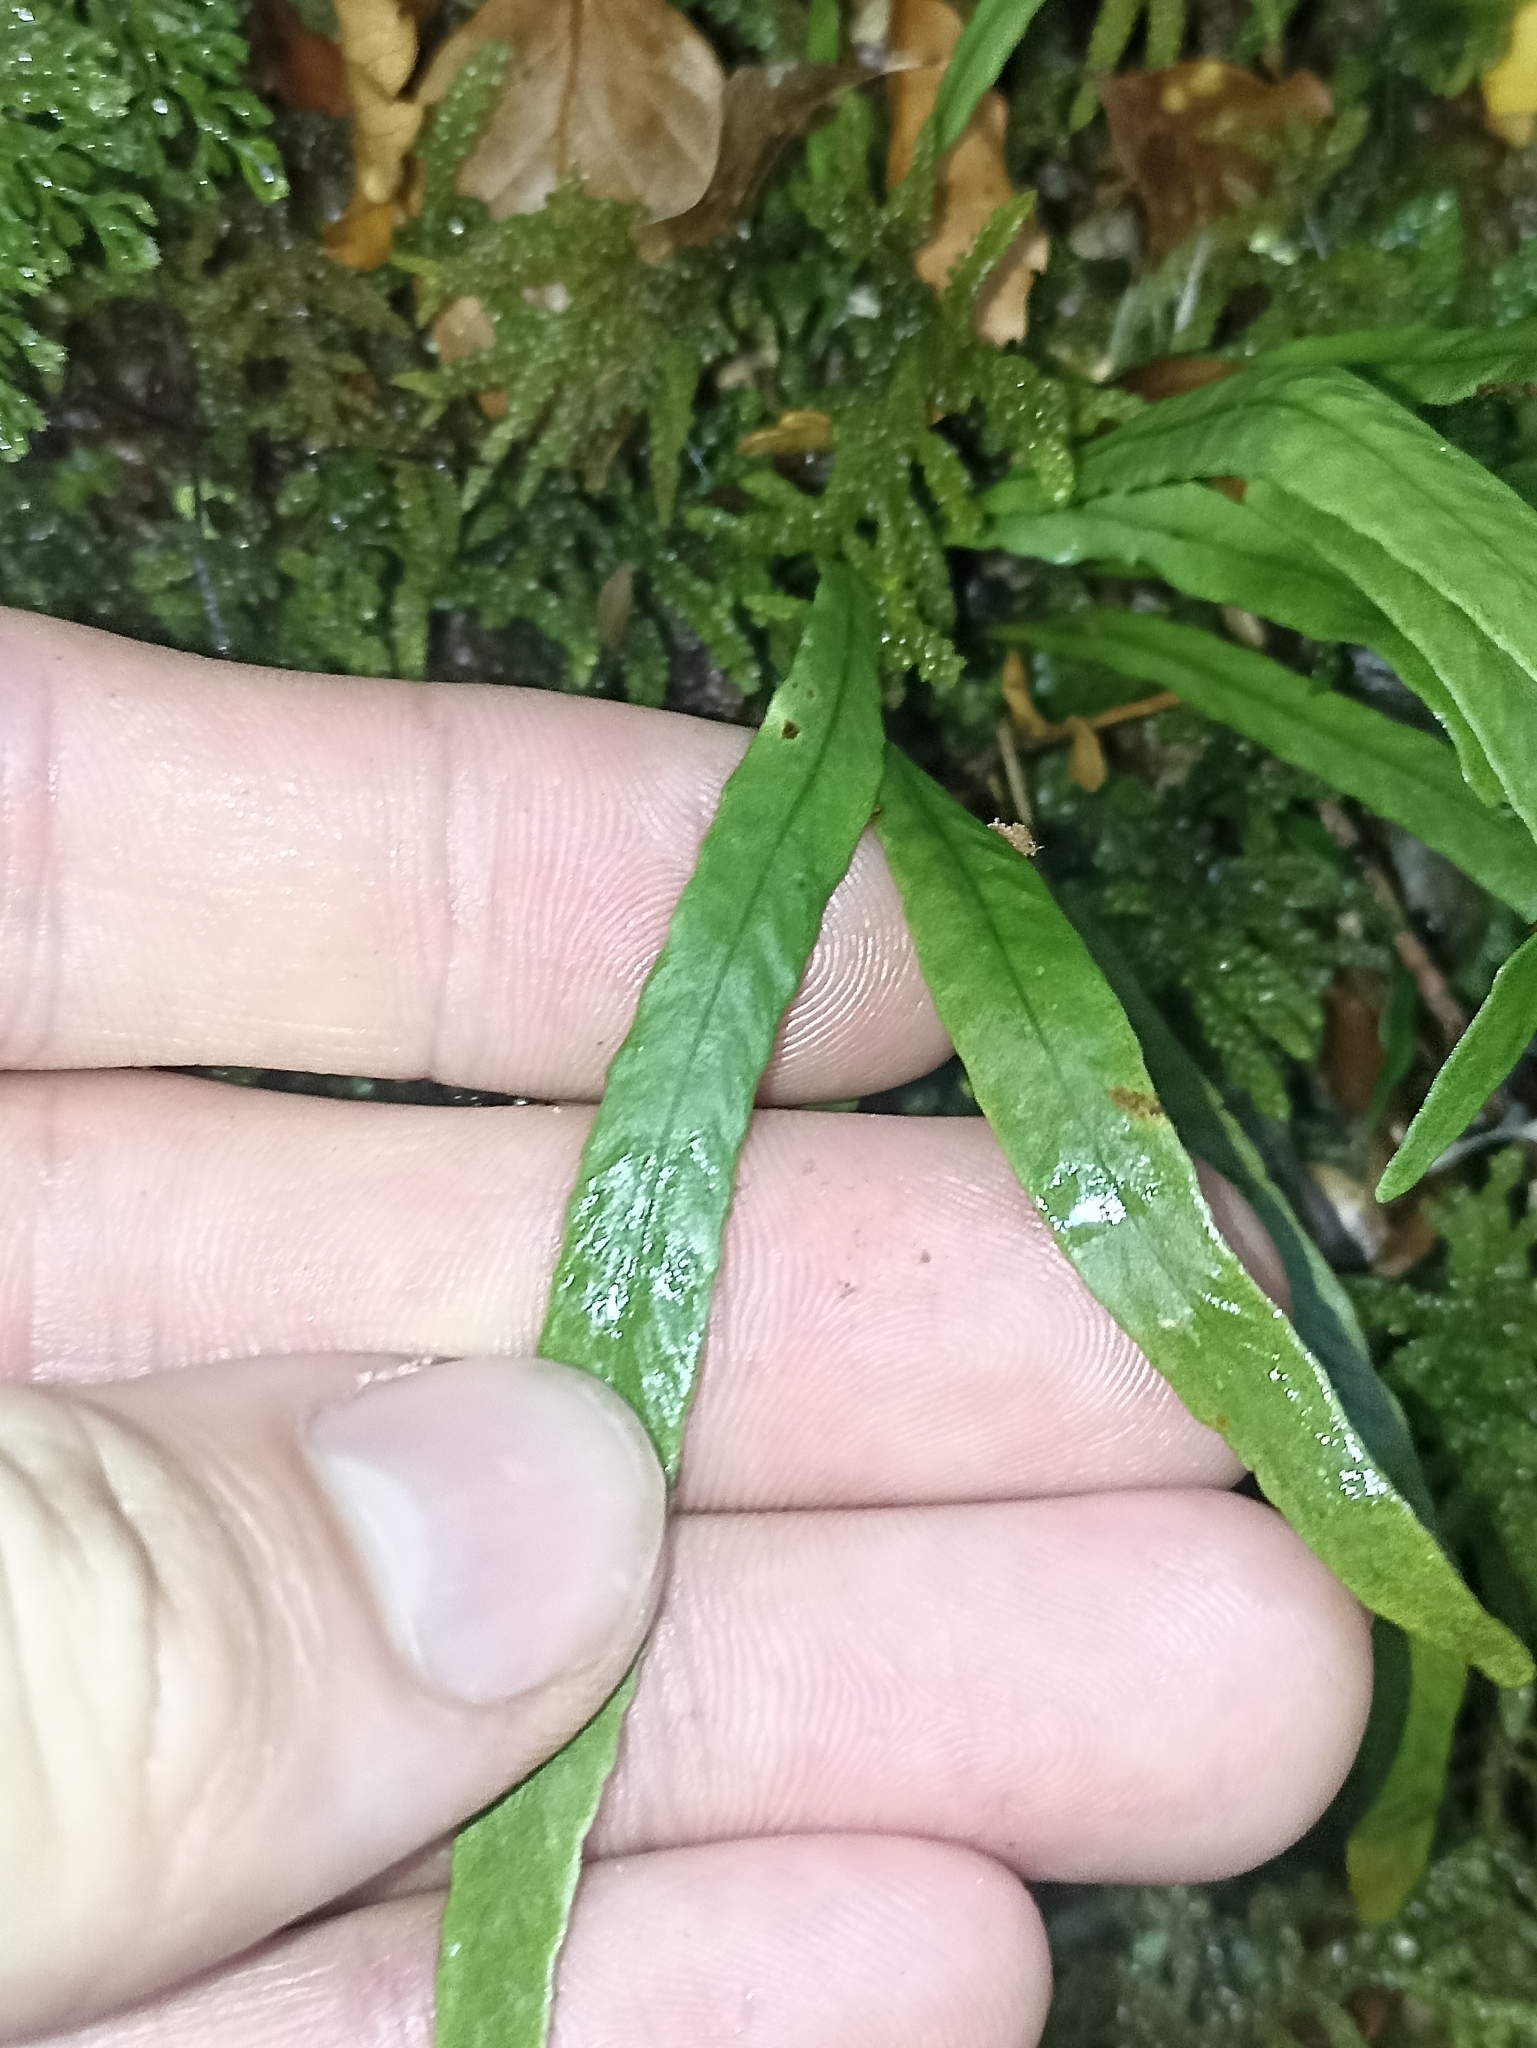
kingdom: Plantae
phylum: Tracheophyta
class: Polypodiopsida
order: Polypodiales
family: Polypodiaceae
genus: Notogrammitis
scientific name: Notogrammitis billardierei
